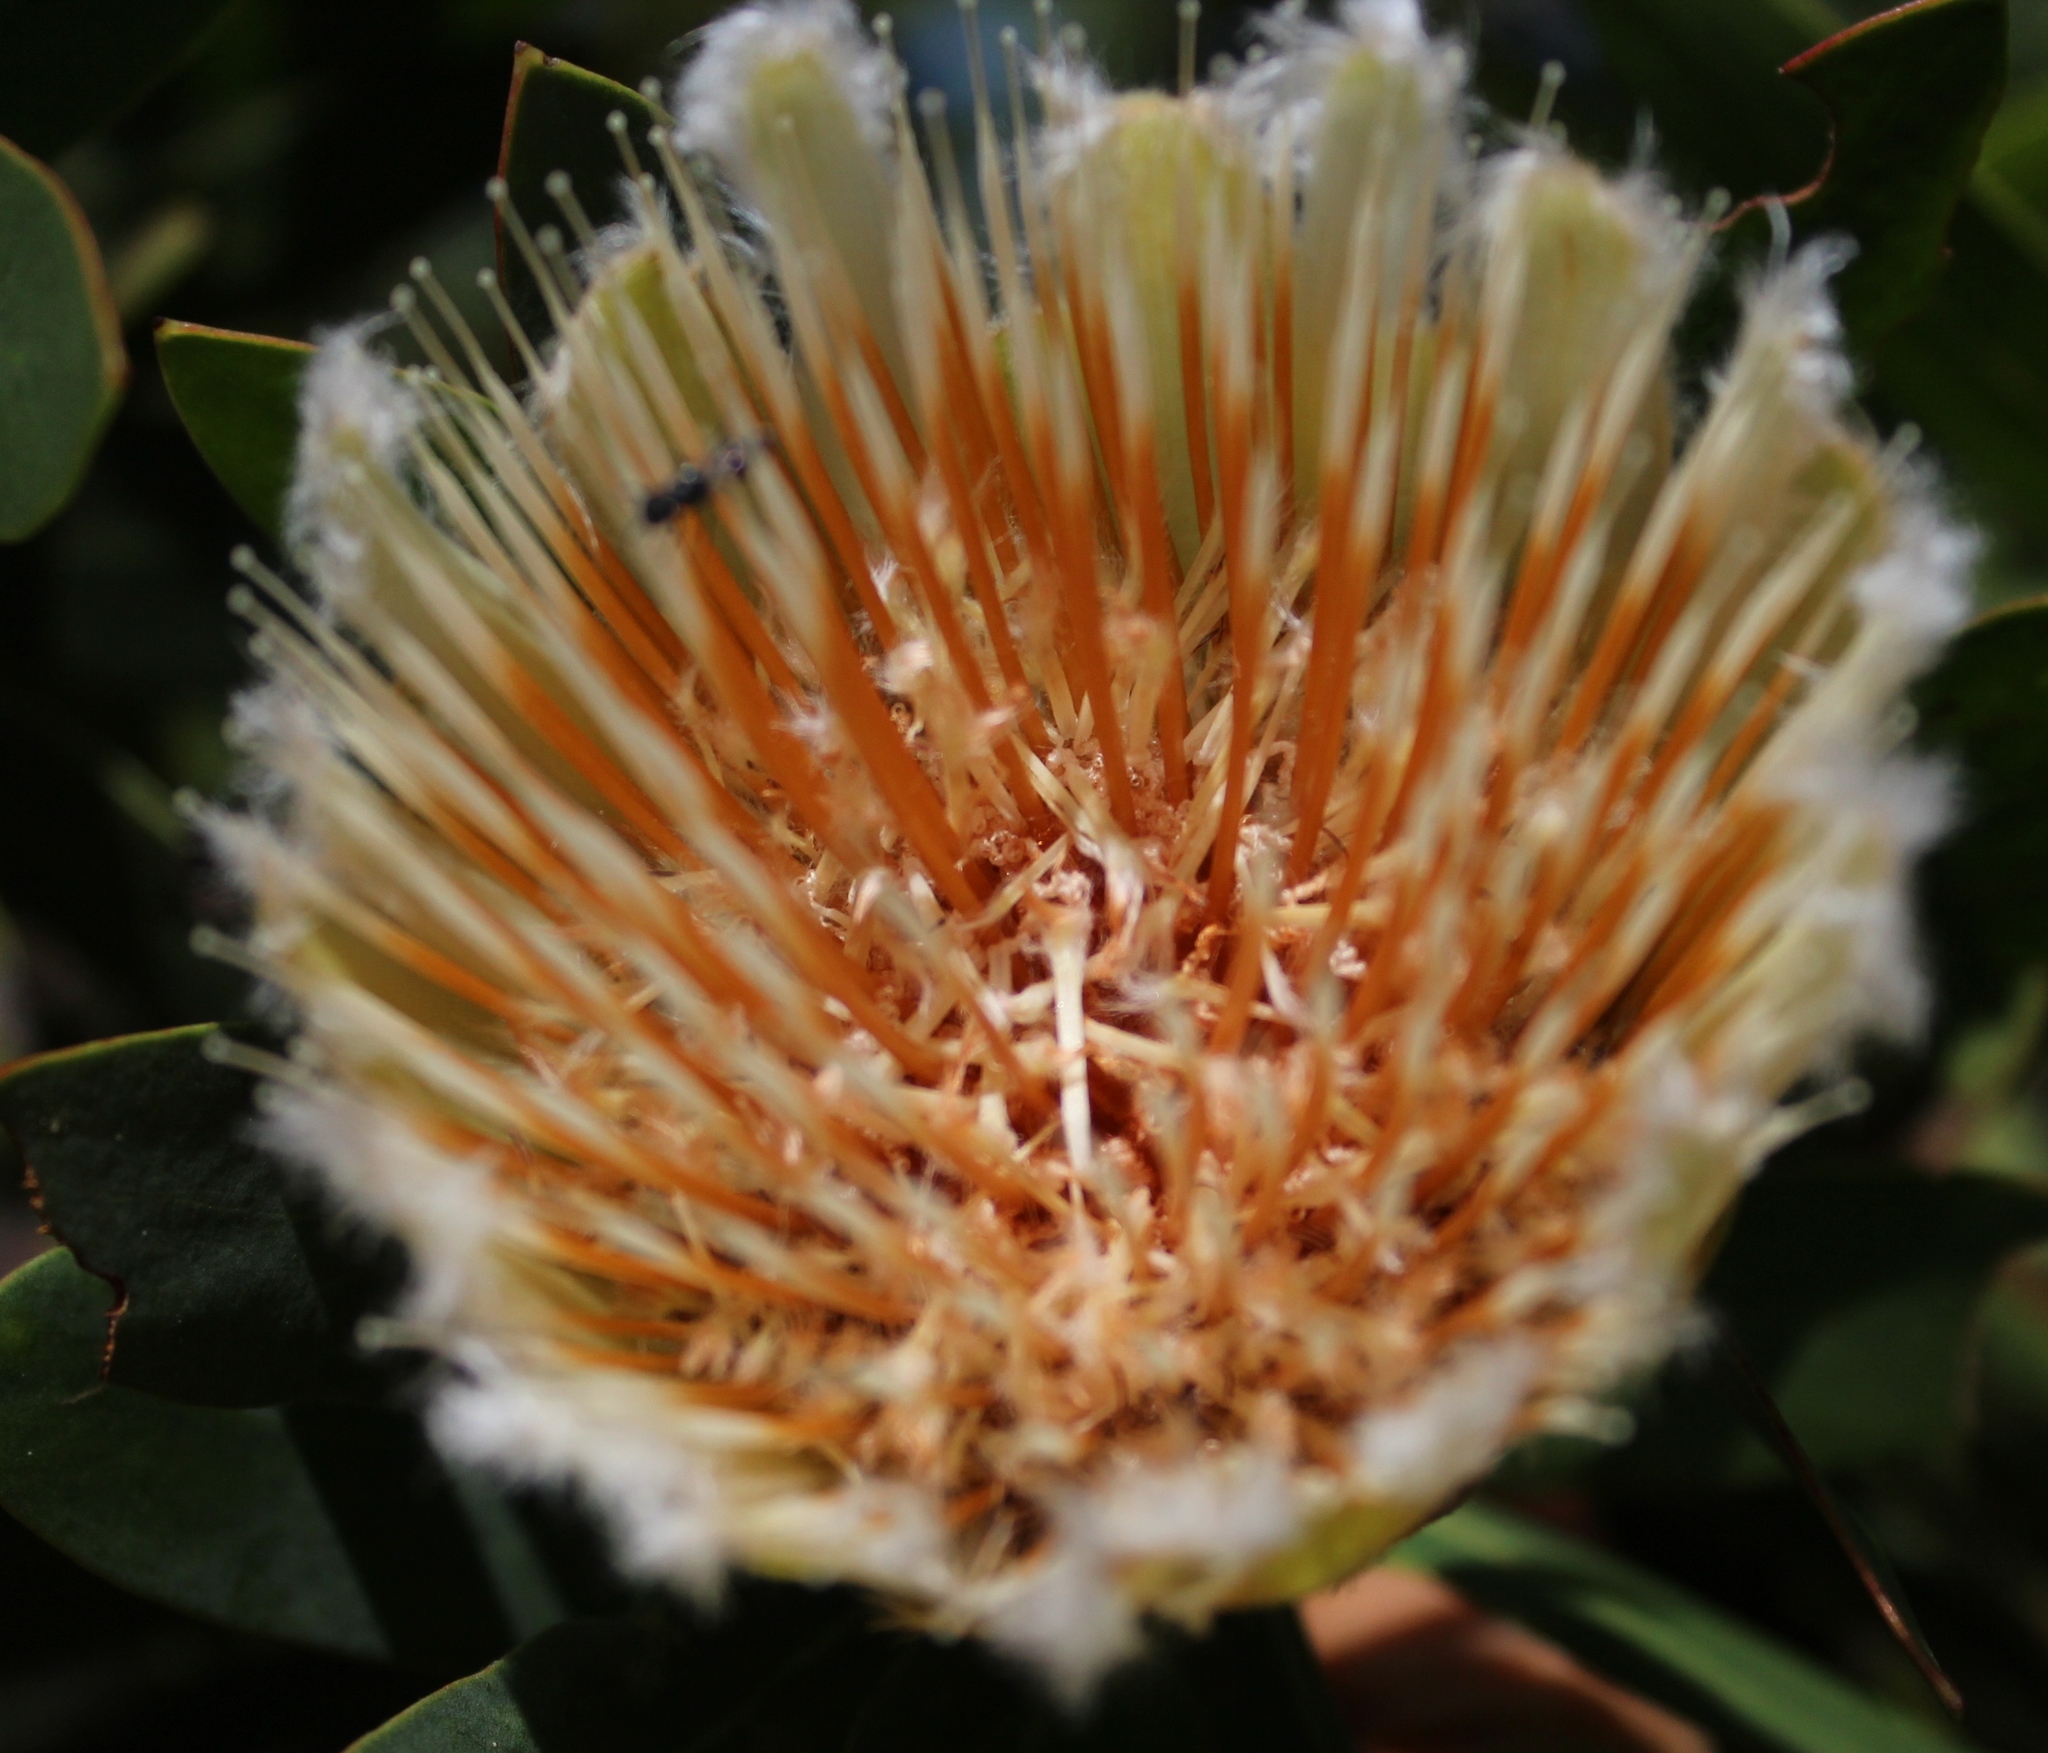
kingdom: Plantae
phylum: Tracheophyta
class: Magnoliopsida
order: Proteales
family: Proteaceae
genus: Protea
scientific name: Protea mundii
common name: Forest sugarbush
